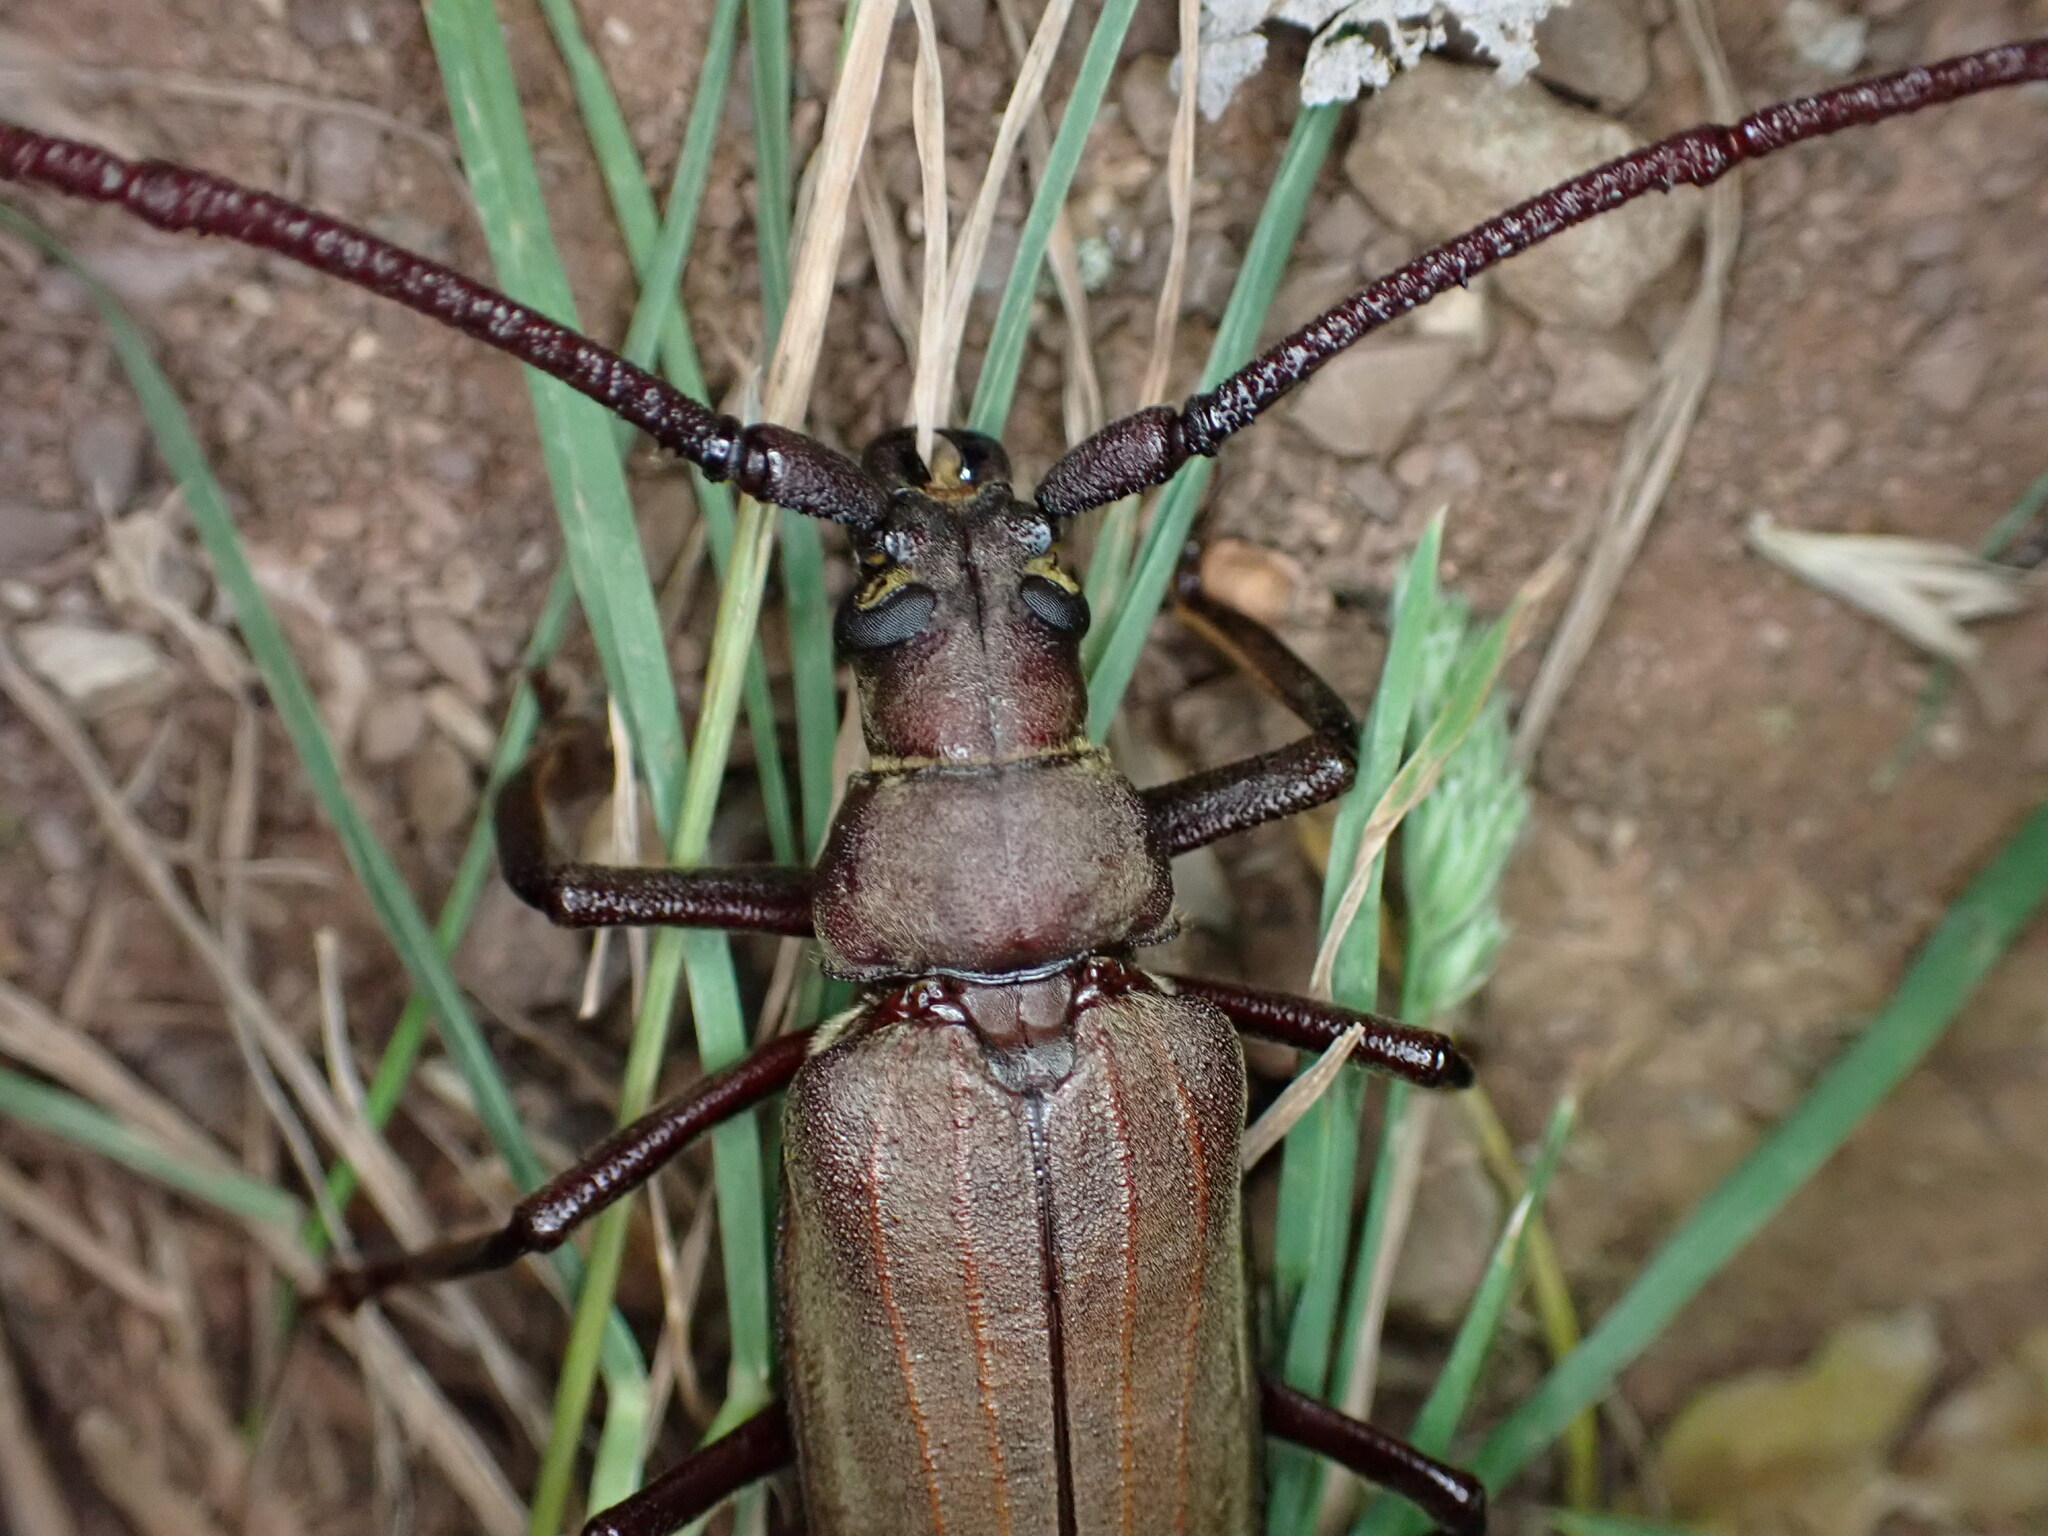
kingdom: Animalia
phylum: Arthropoda
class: Insecta
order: Coleoptera
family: Cerambycidae
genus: Aegosoma
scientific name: Aegosoma scabricorne
